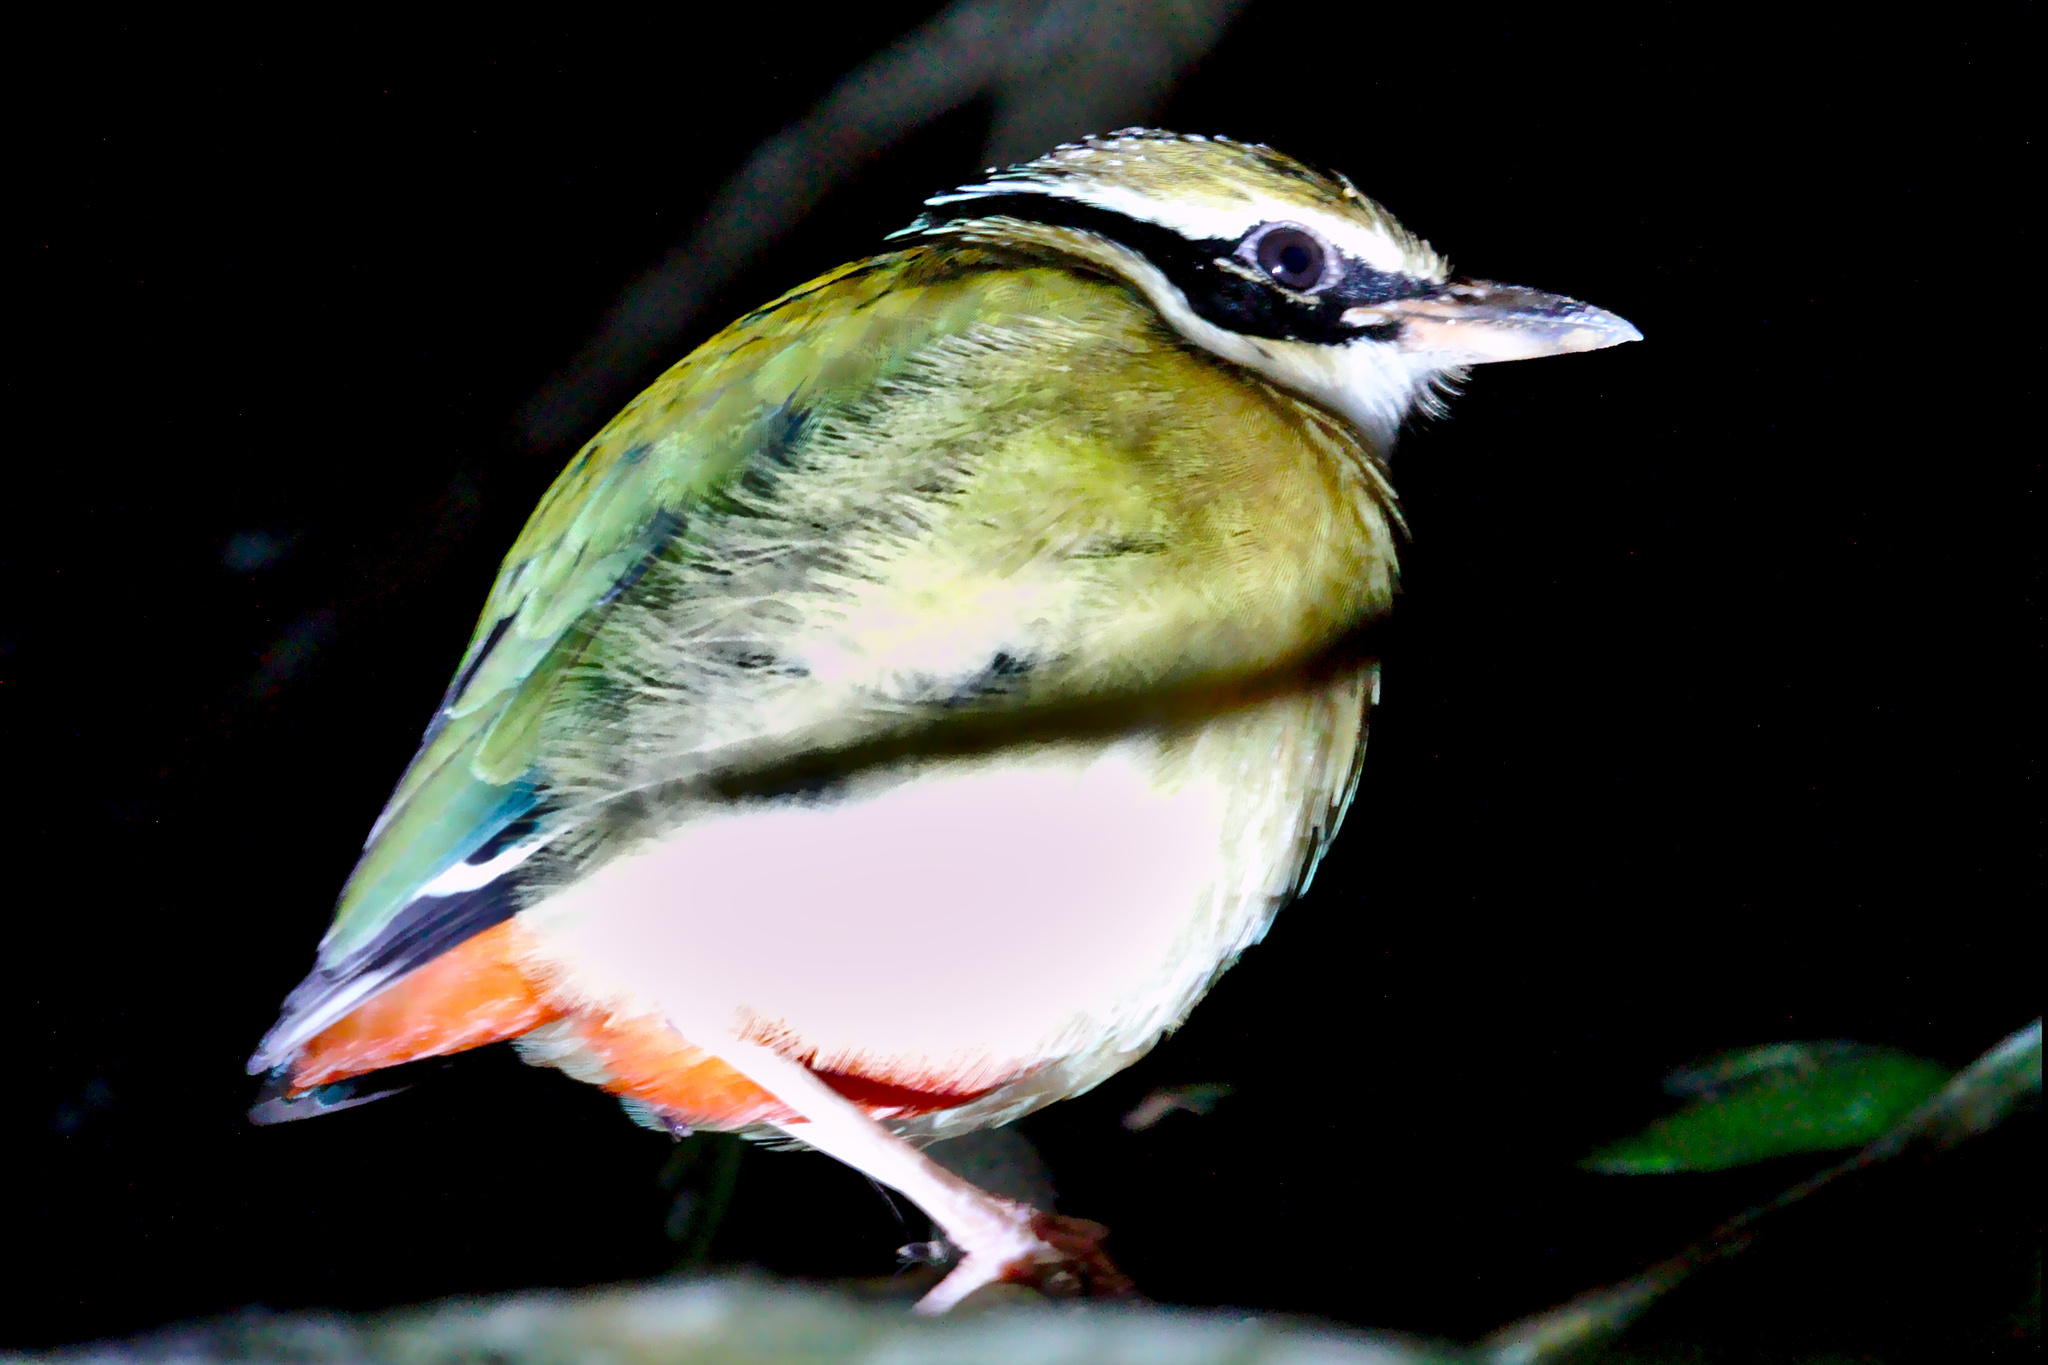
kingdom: Animalia
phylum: Chordata
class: Aves
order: Passeriformes
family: Pittidae
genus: Pitta
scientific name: Pitta brachyura
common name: Indian pitta
